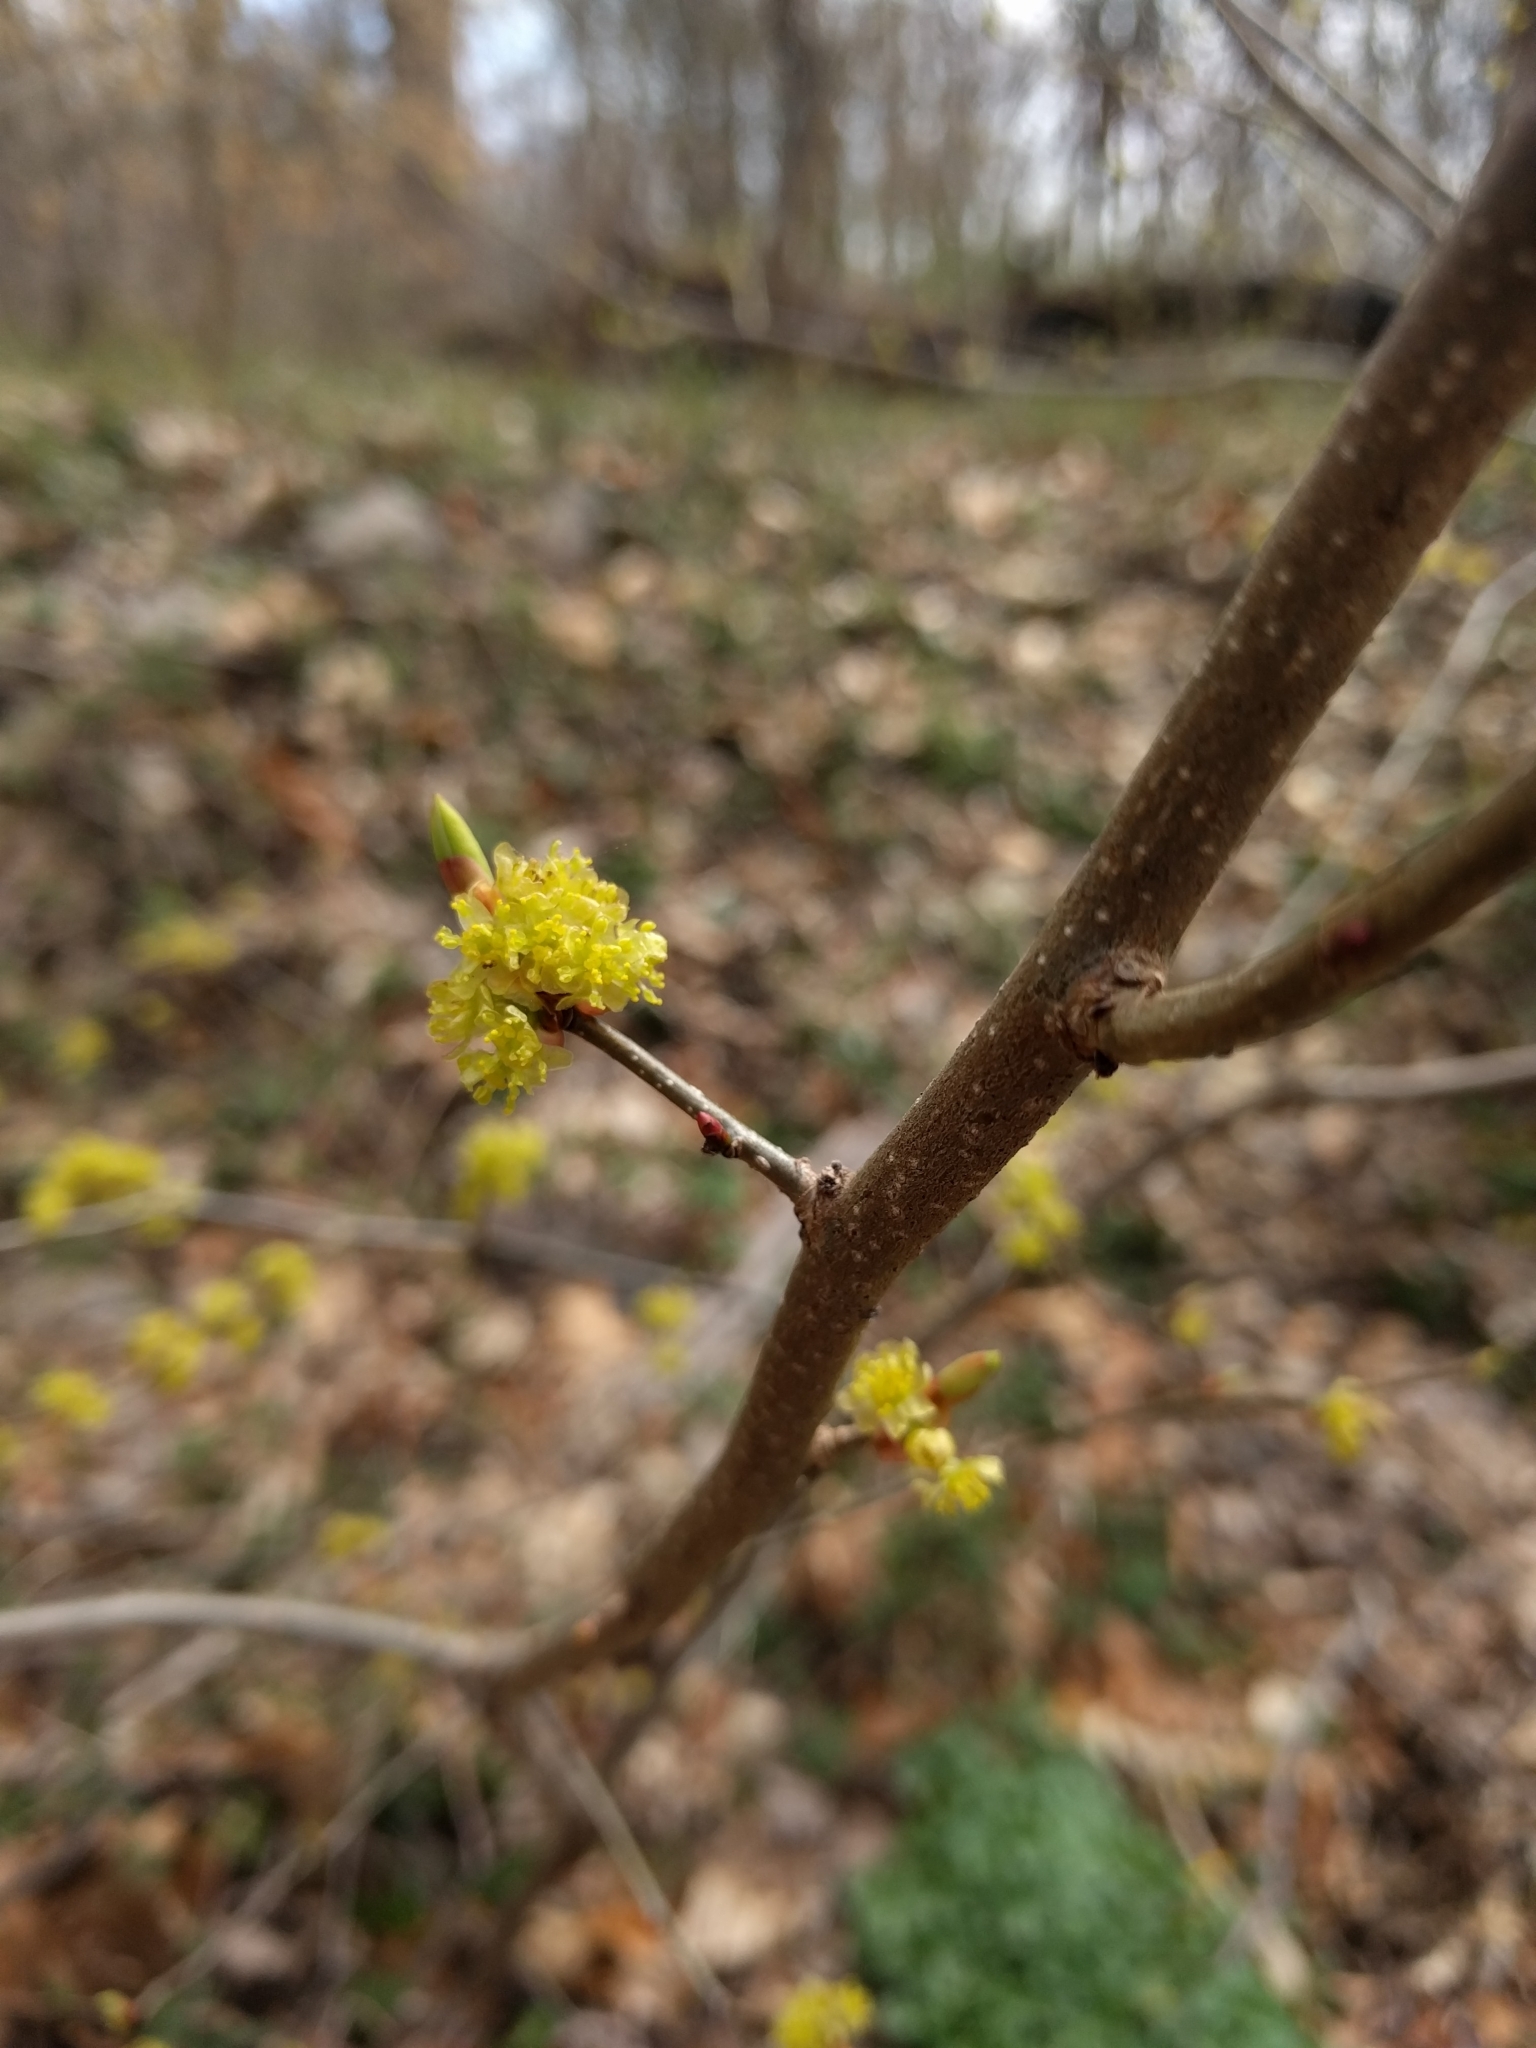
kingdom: Plantae
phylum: Tracheophyta
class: Magnoliopsida
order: Laurales
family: Lauraceae
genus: Lindera
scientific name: Lindera benzoin
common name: Spicebush
